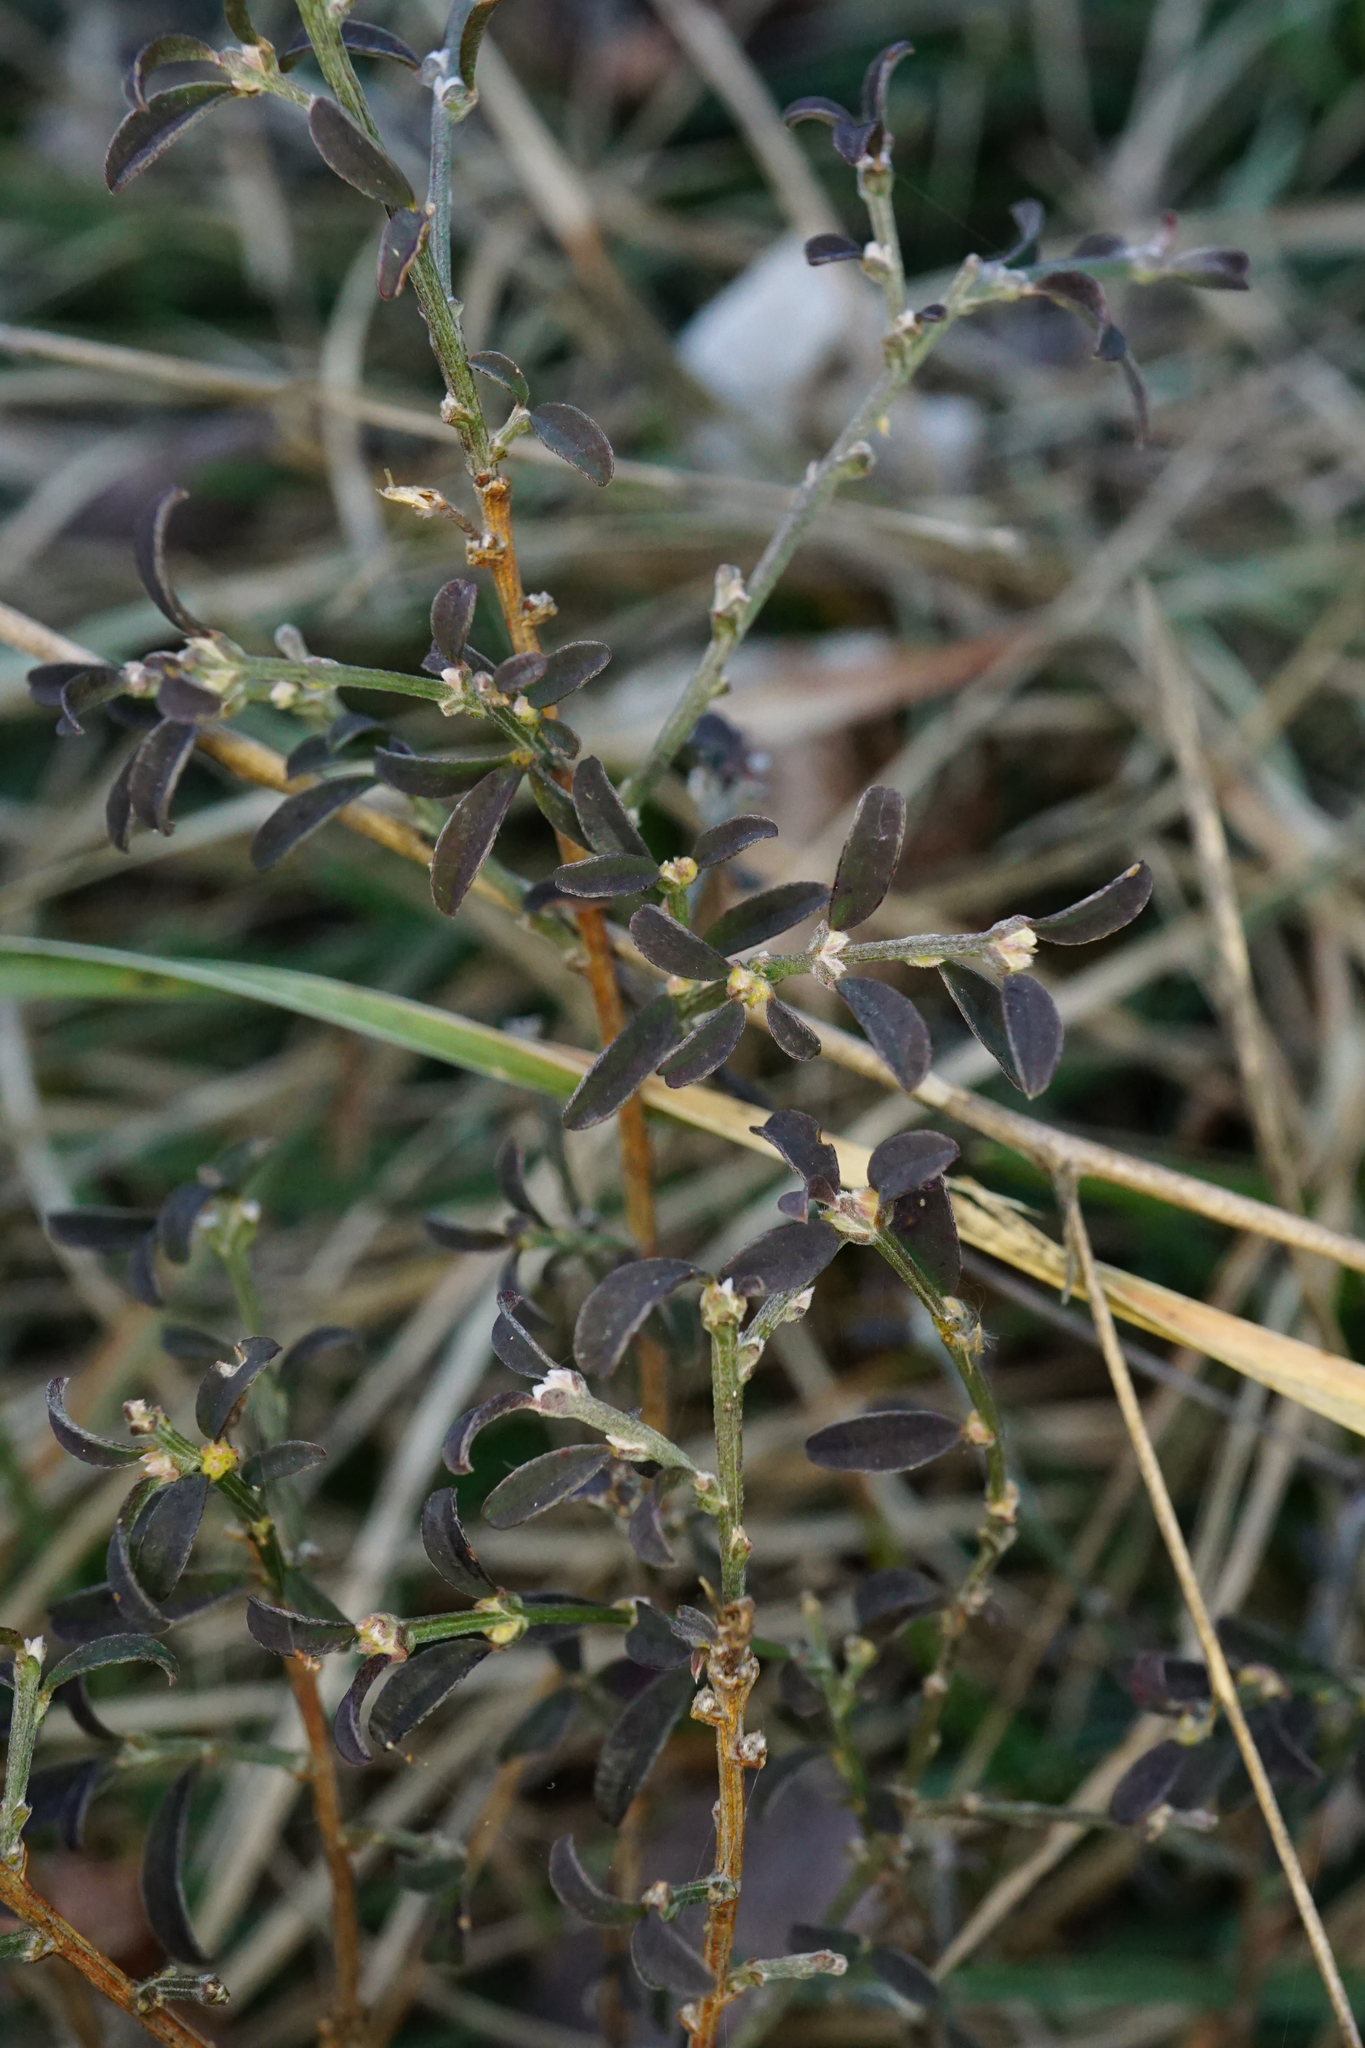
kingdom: Plantae
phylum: Tracheophyta
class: Magnoliopsida
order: Fabales
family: Fabaceae
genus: Genista
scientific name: Genista pilosa
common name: Hairy greenweed
